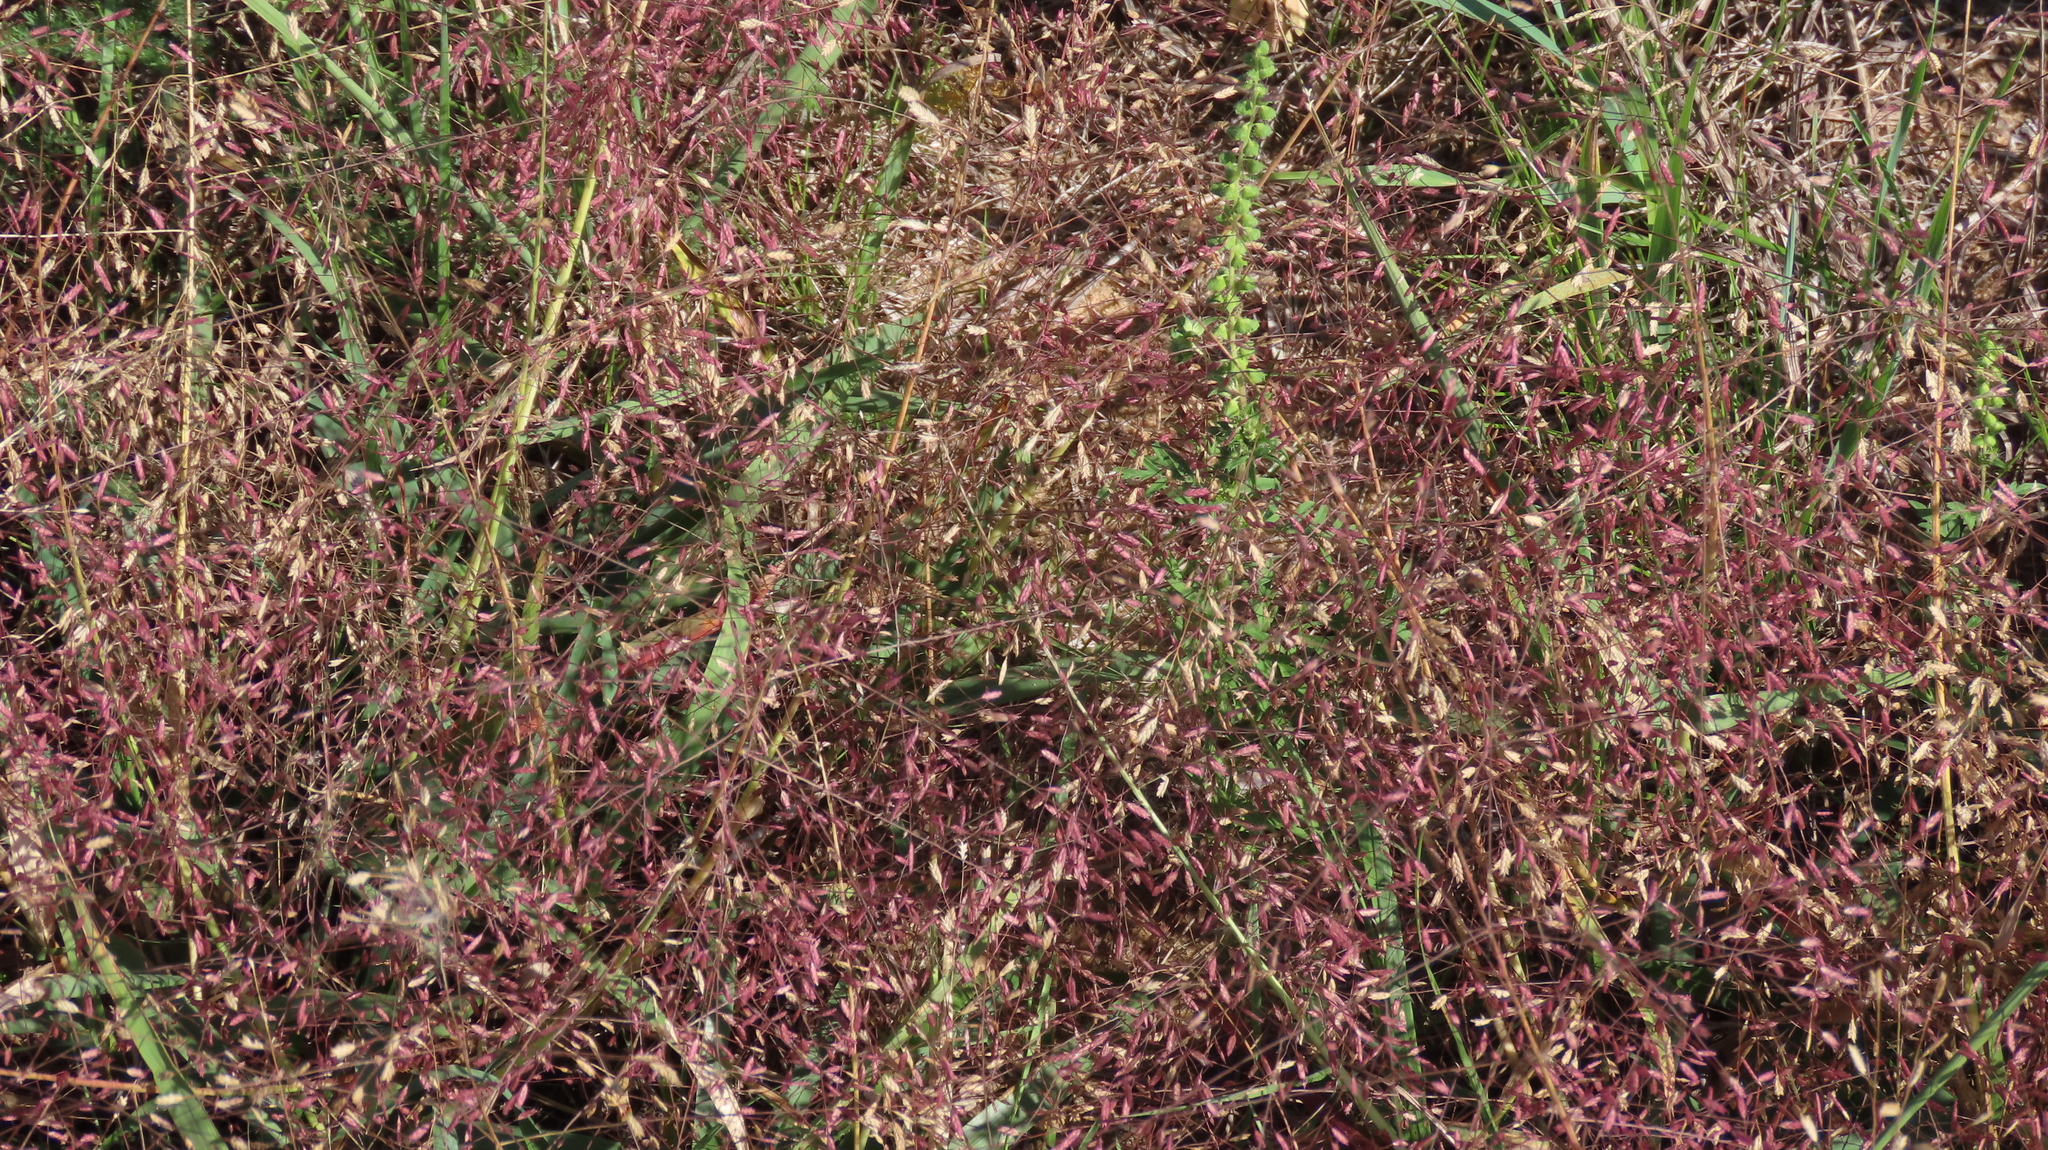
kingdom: Plantae
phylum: Tracheophyta
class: Liliopsida
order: Poales
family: Poaceae
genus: Eragrostis
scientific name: Eragrostis spectabilis
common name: Petticoat-climber
